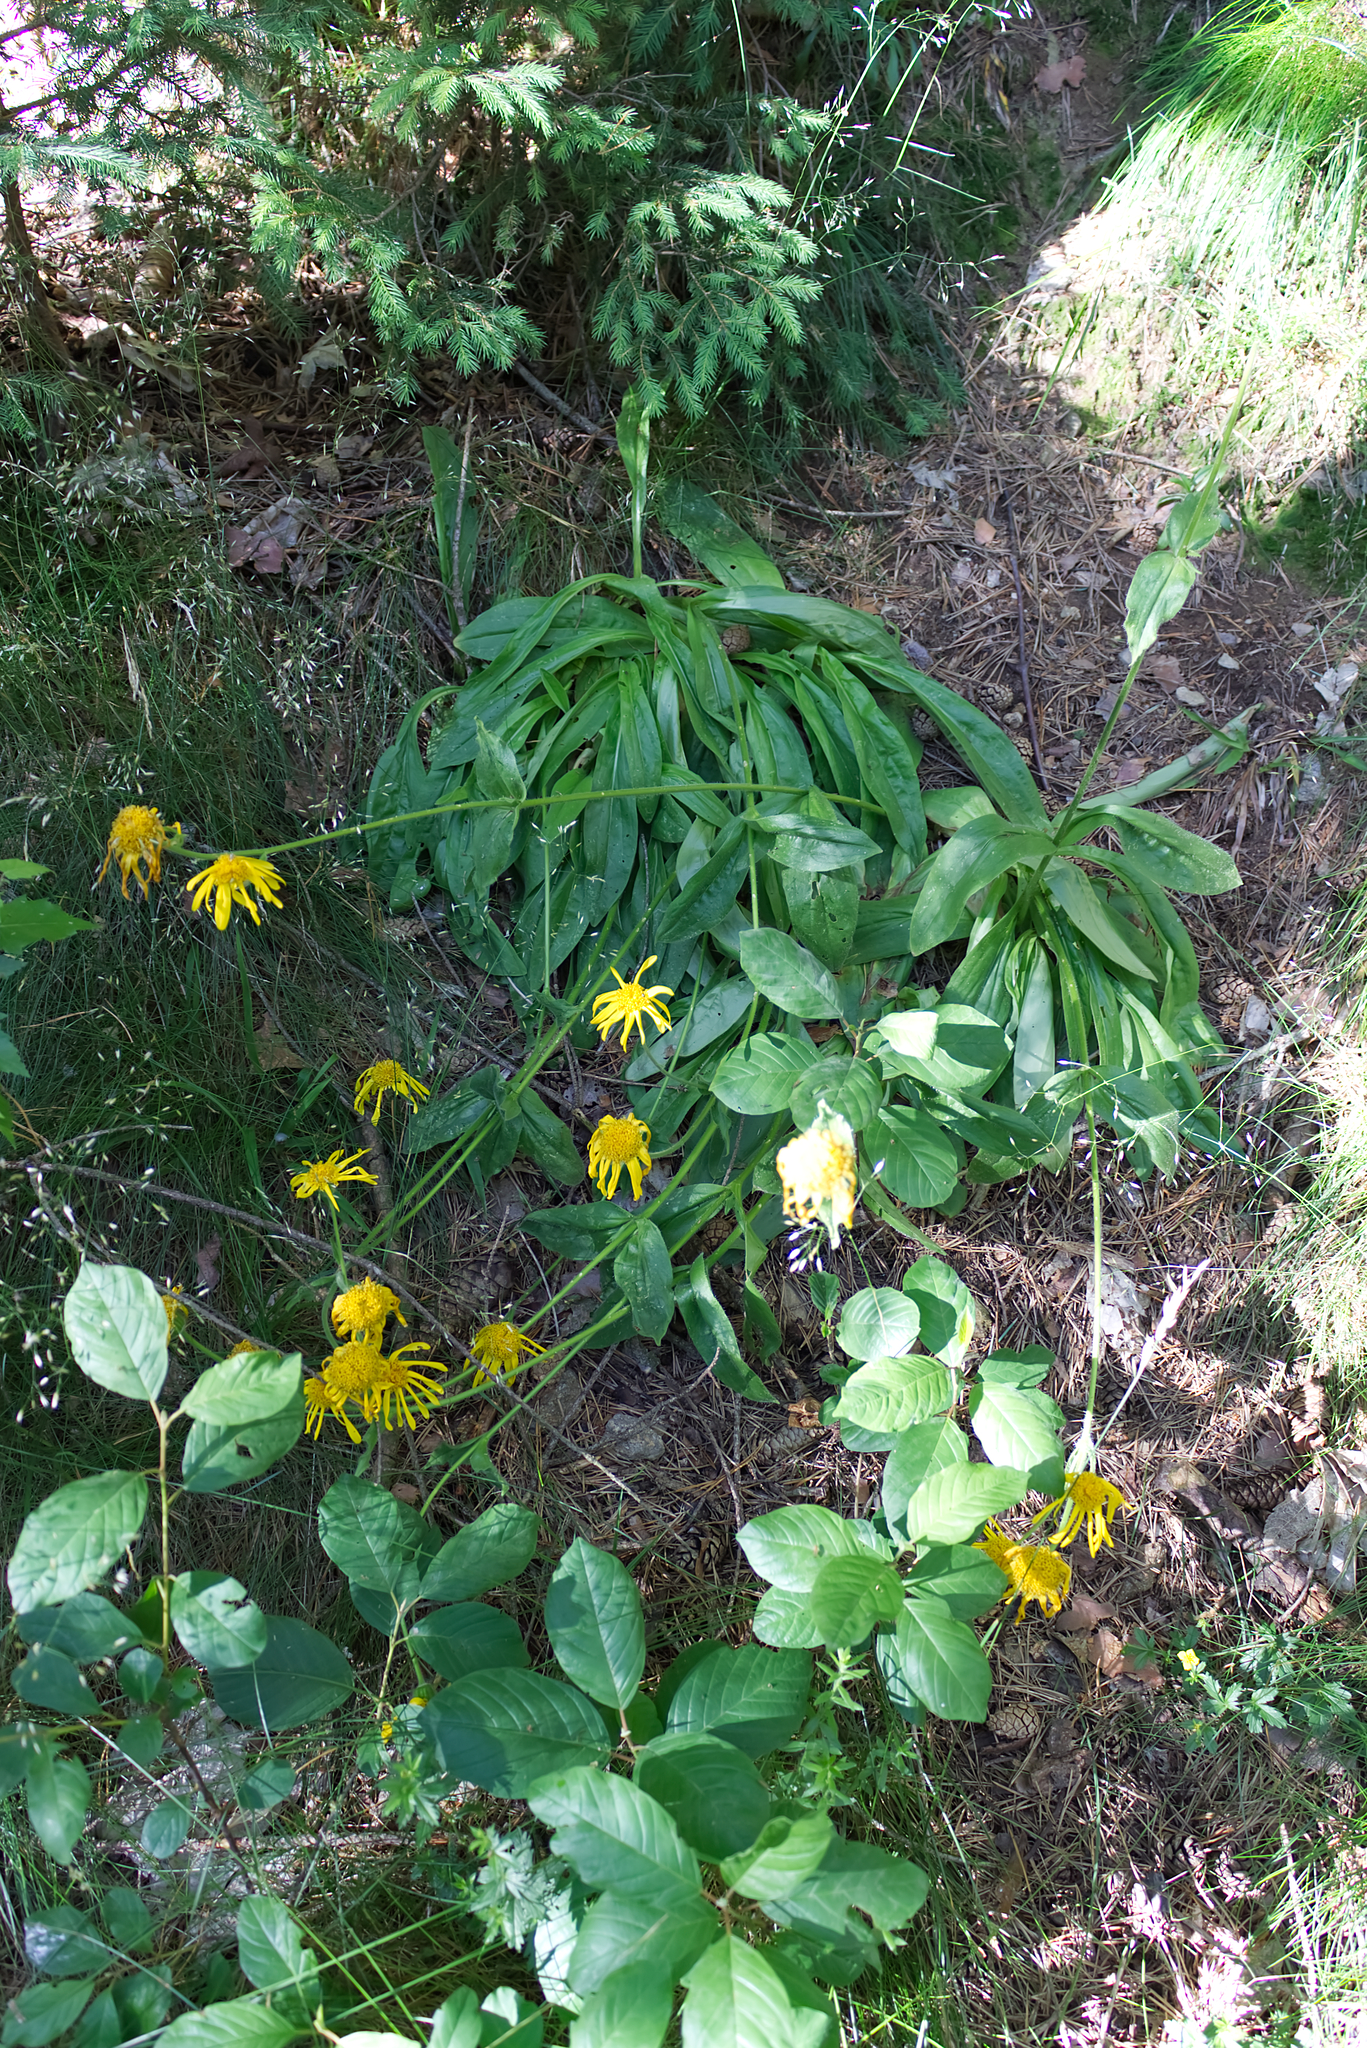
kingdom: Plantae
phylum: Tracheophyta
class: Magnoliopsida
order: Asterales
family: Asteraceae
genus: Arnica
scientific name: Arnica montana
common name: Leopard's bane
